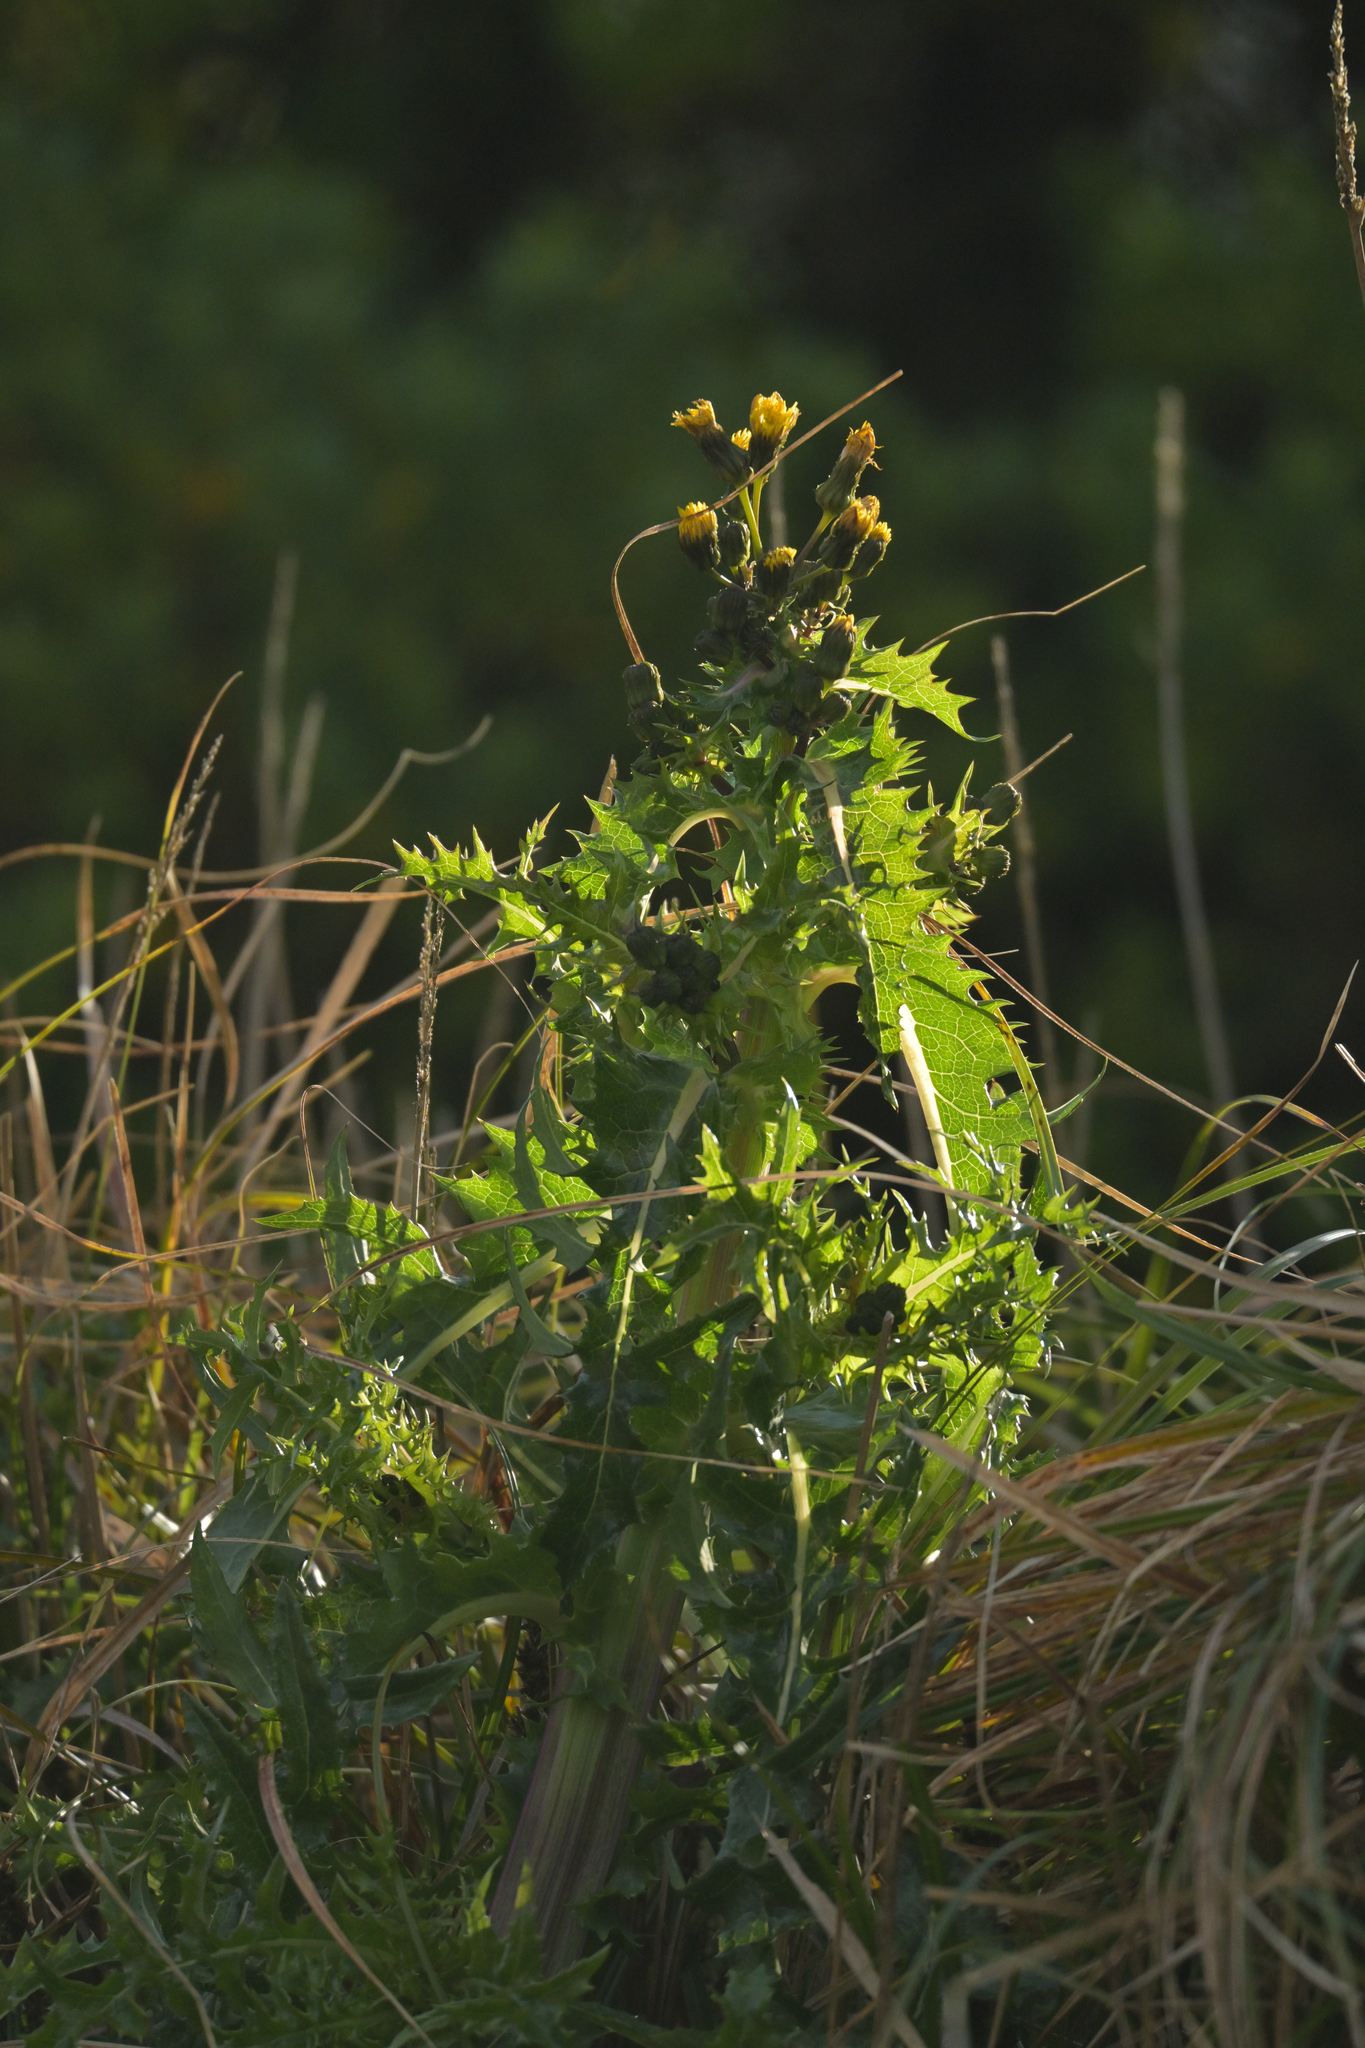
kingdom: Plantae
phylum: Tracheophyta
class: Magnoliopsida
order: Asterales
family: Asteraceae
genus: Sonchus
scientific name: Sonchus asper
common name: Prickly sow-thistle
